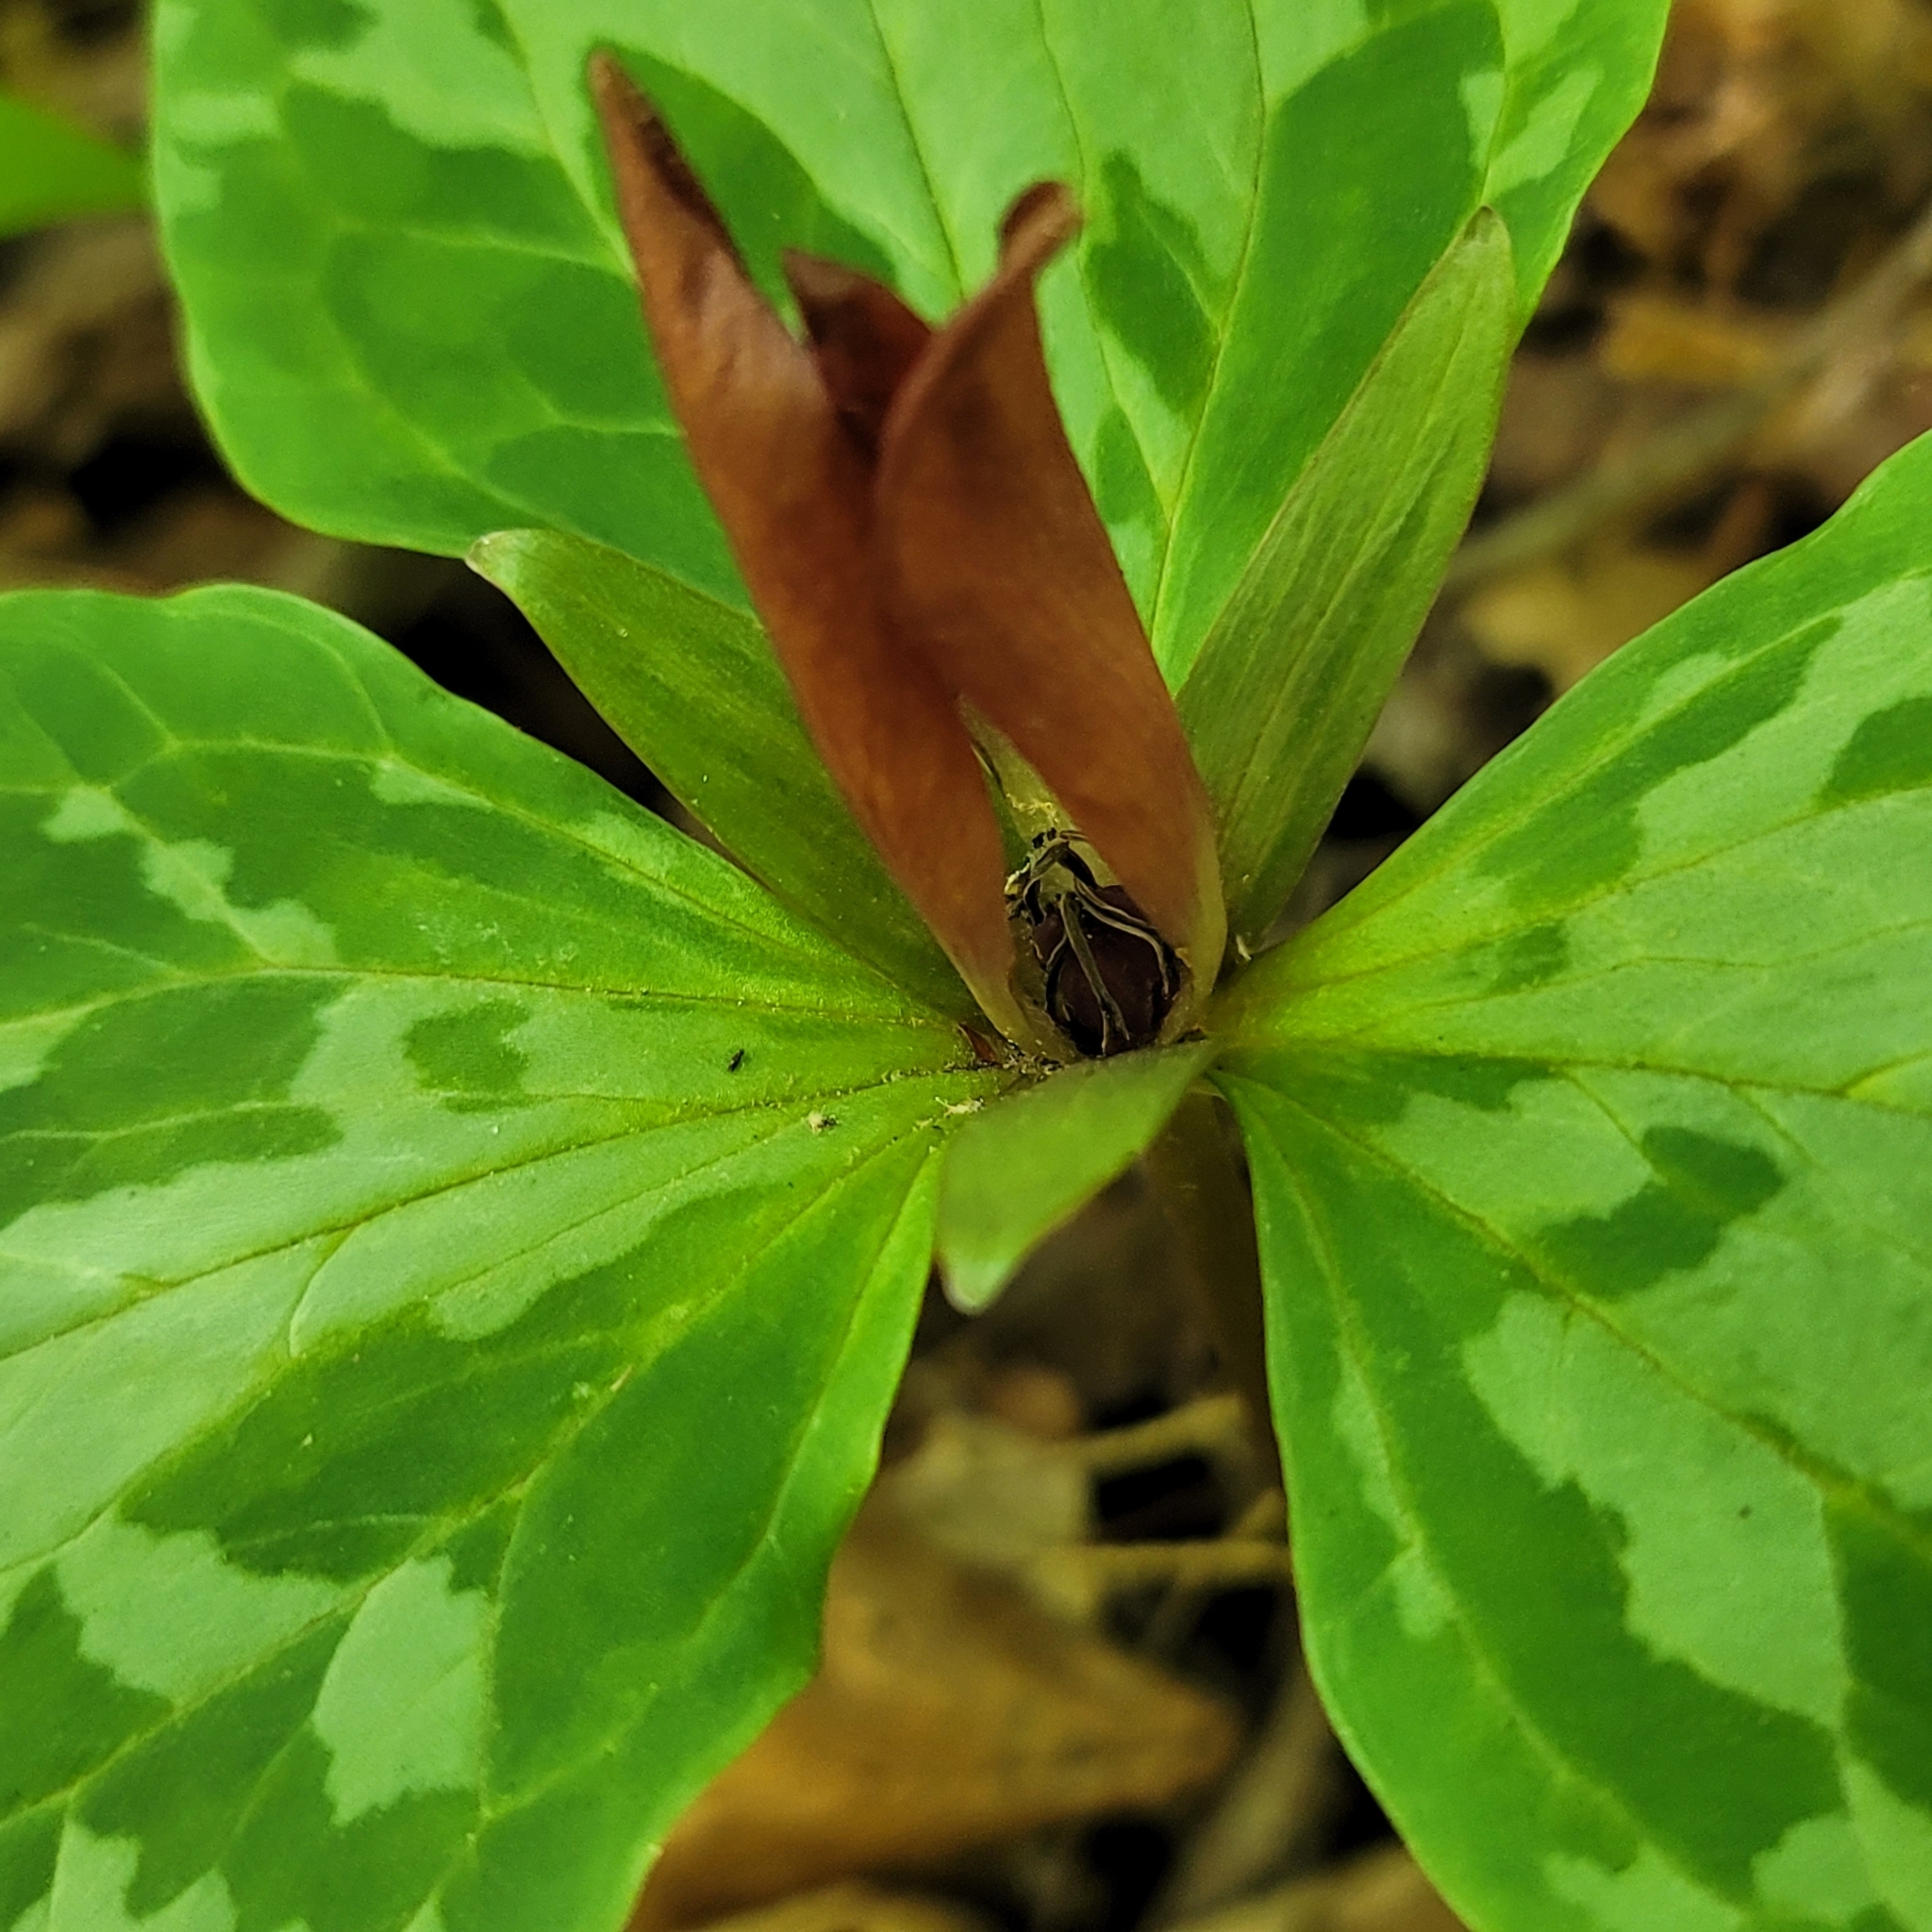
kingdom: Plantae
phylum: Tracheophyta
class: Liliopsida
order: Liliales
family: Melanthiaceae
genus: Trillium
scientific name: Trillium cuneatum
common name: Cuneate trillium
